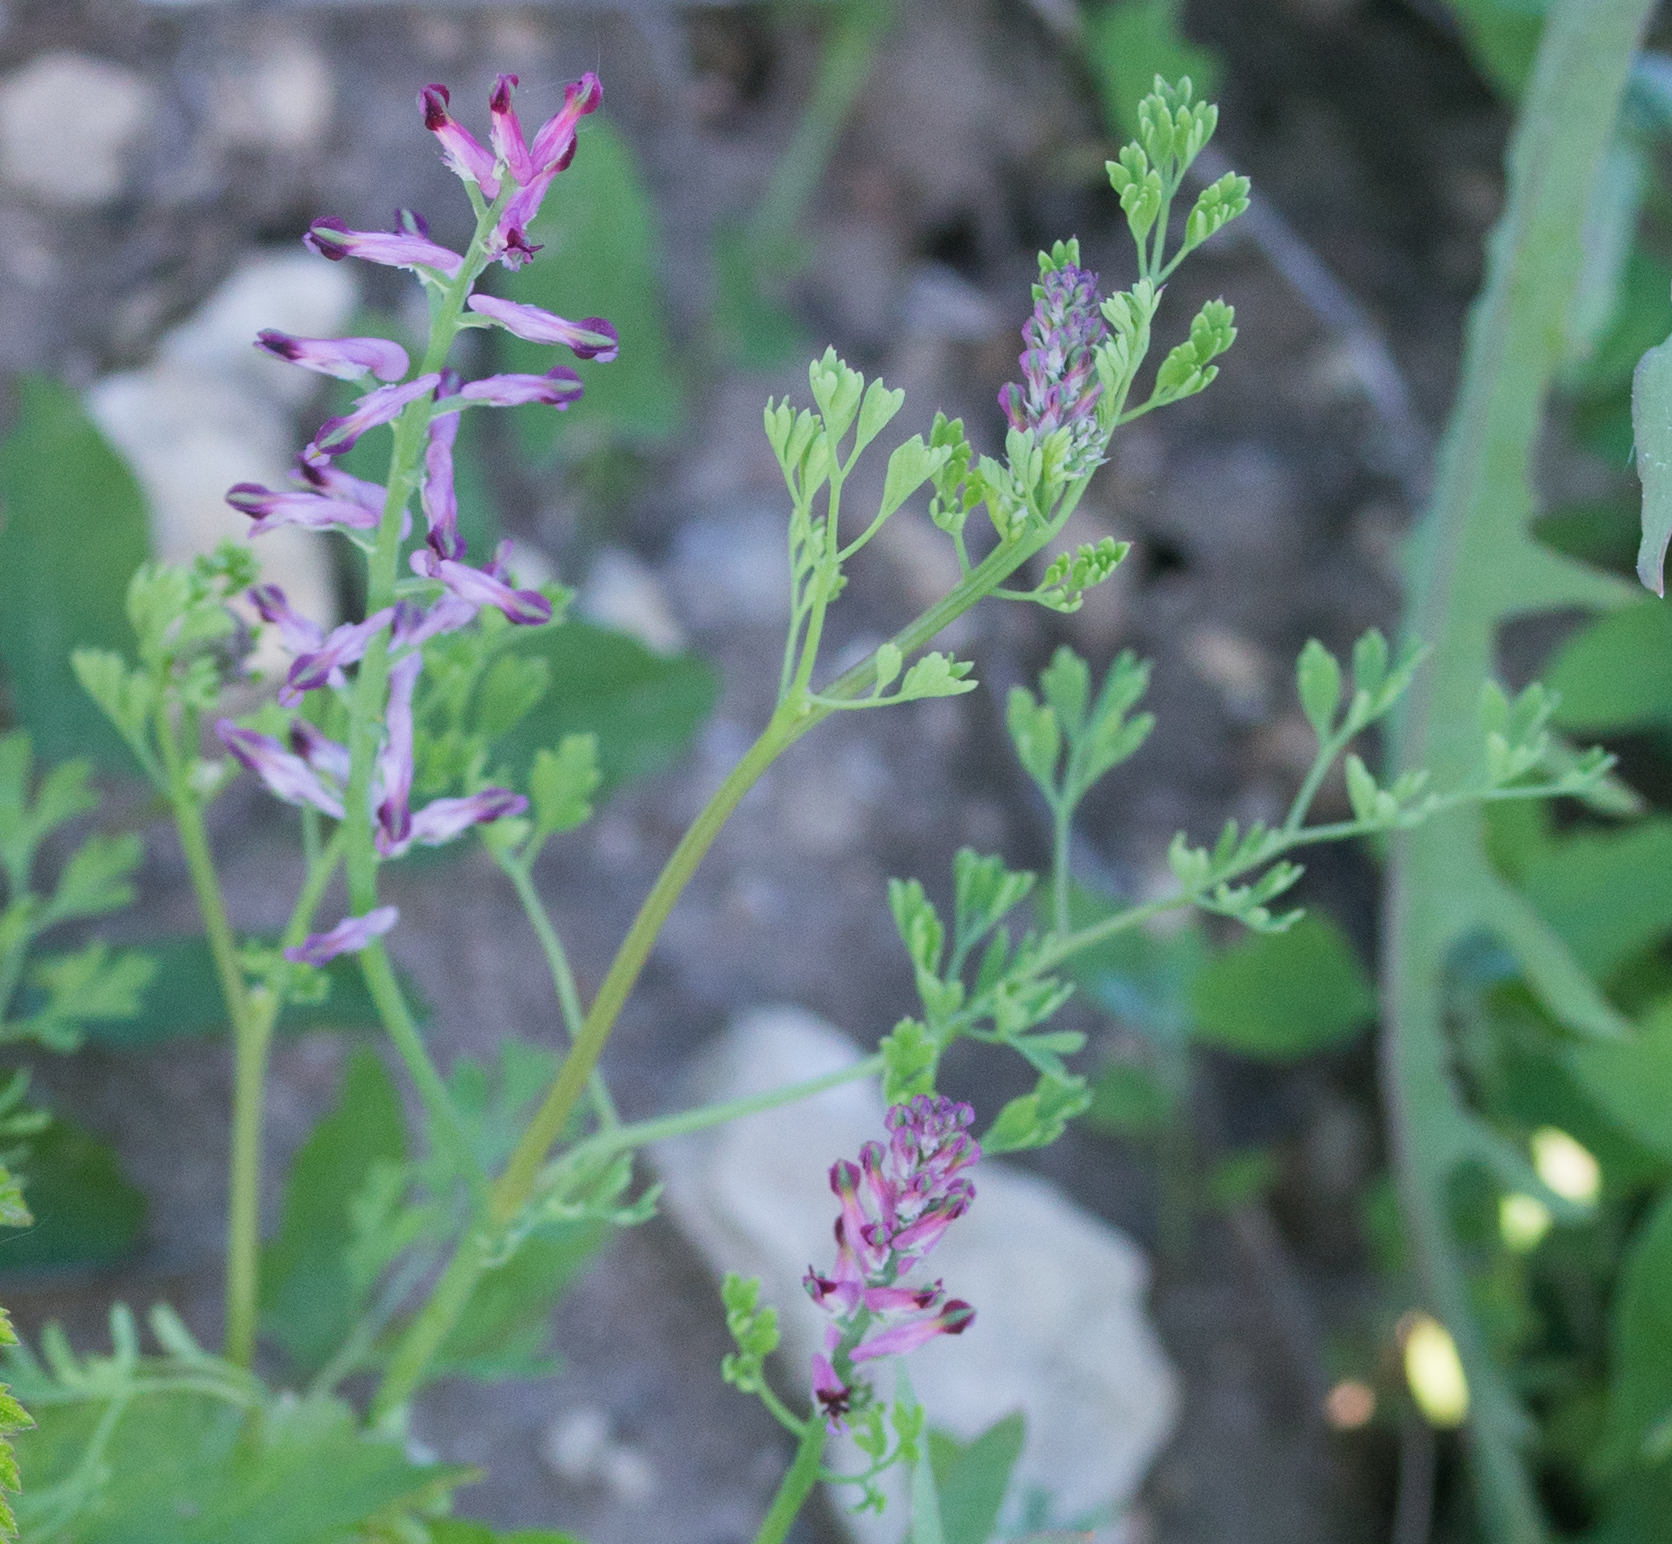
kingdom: Plantae
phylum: Tracheophyta
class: Magnoliopsida
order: Ranunculales
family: Papaveraceae
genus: Fumaria
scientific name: Fumaria officinalis
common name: Common fumitory
